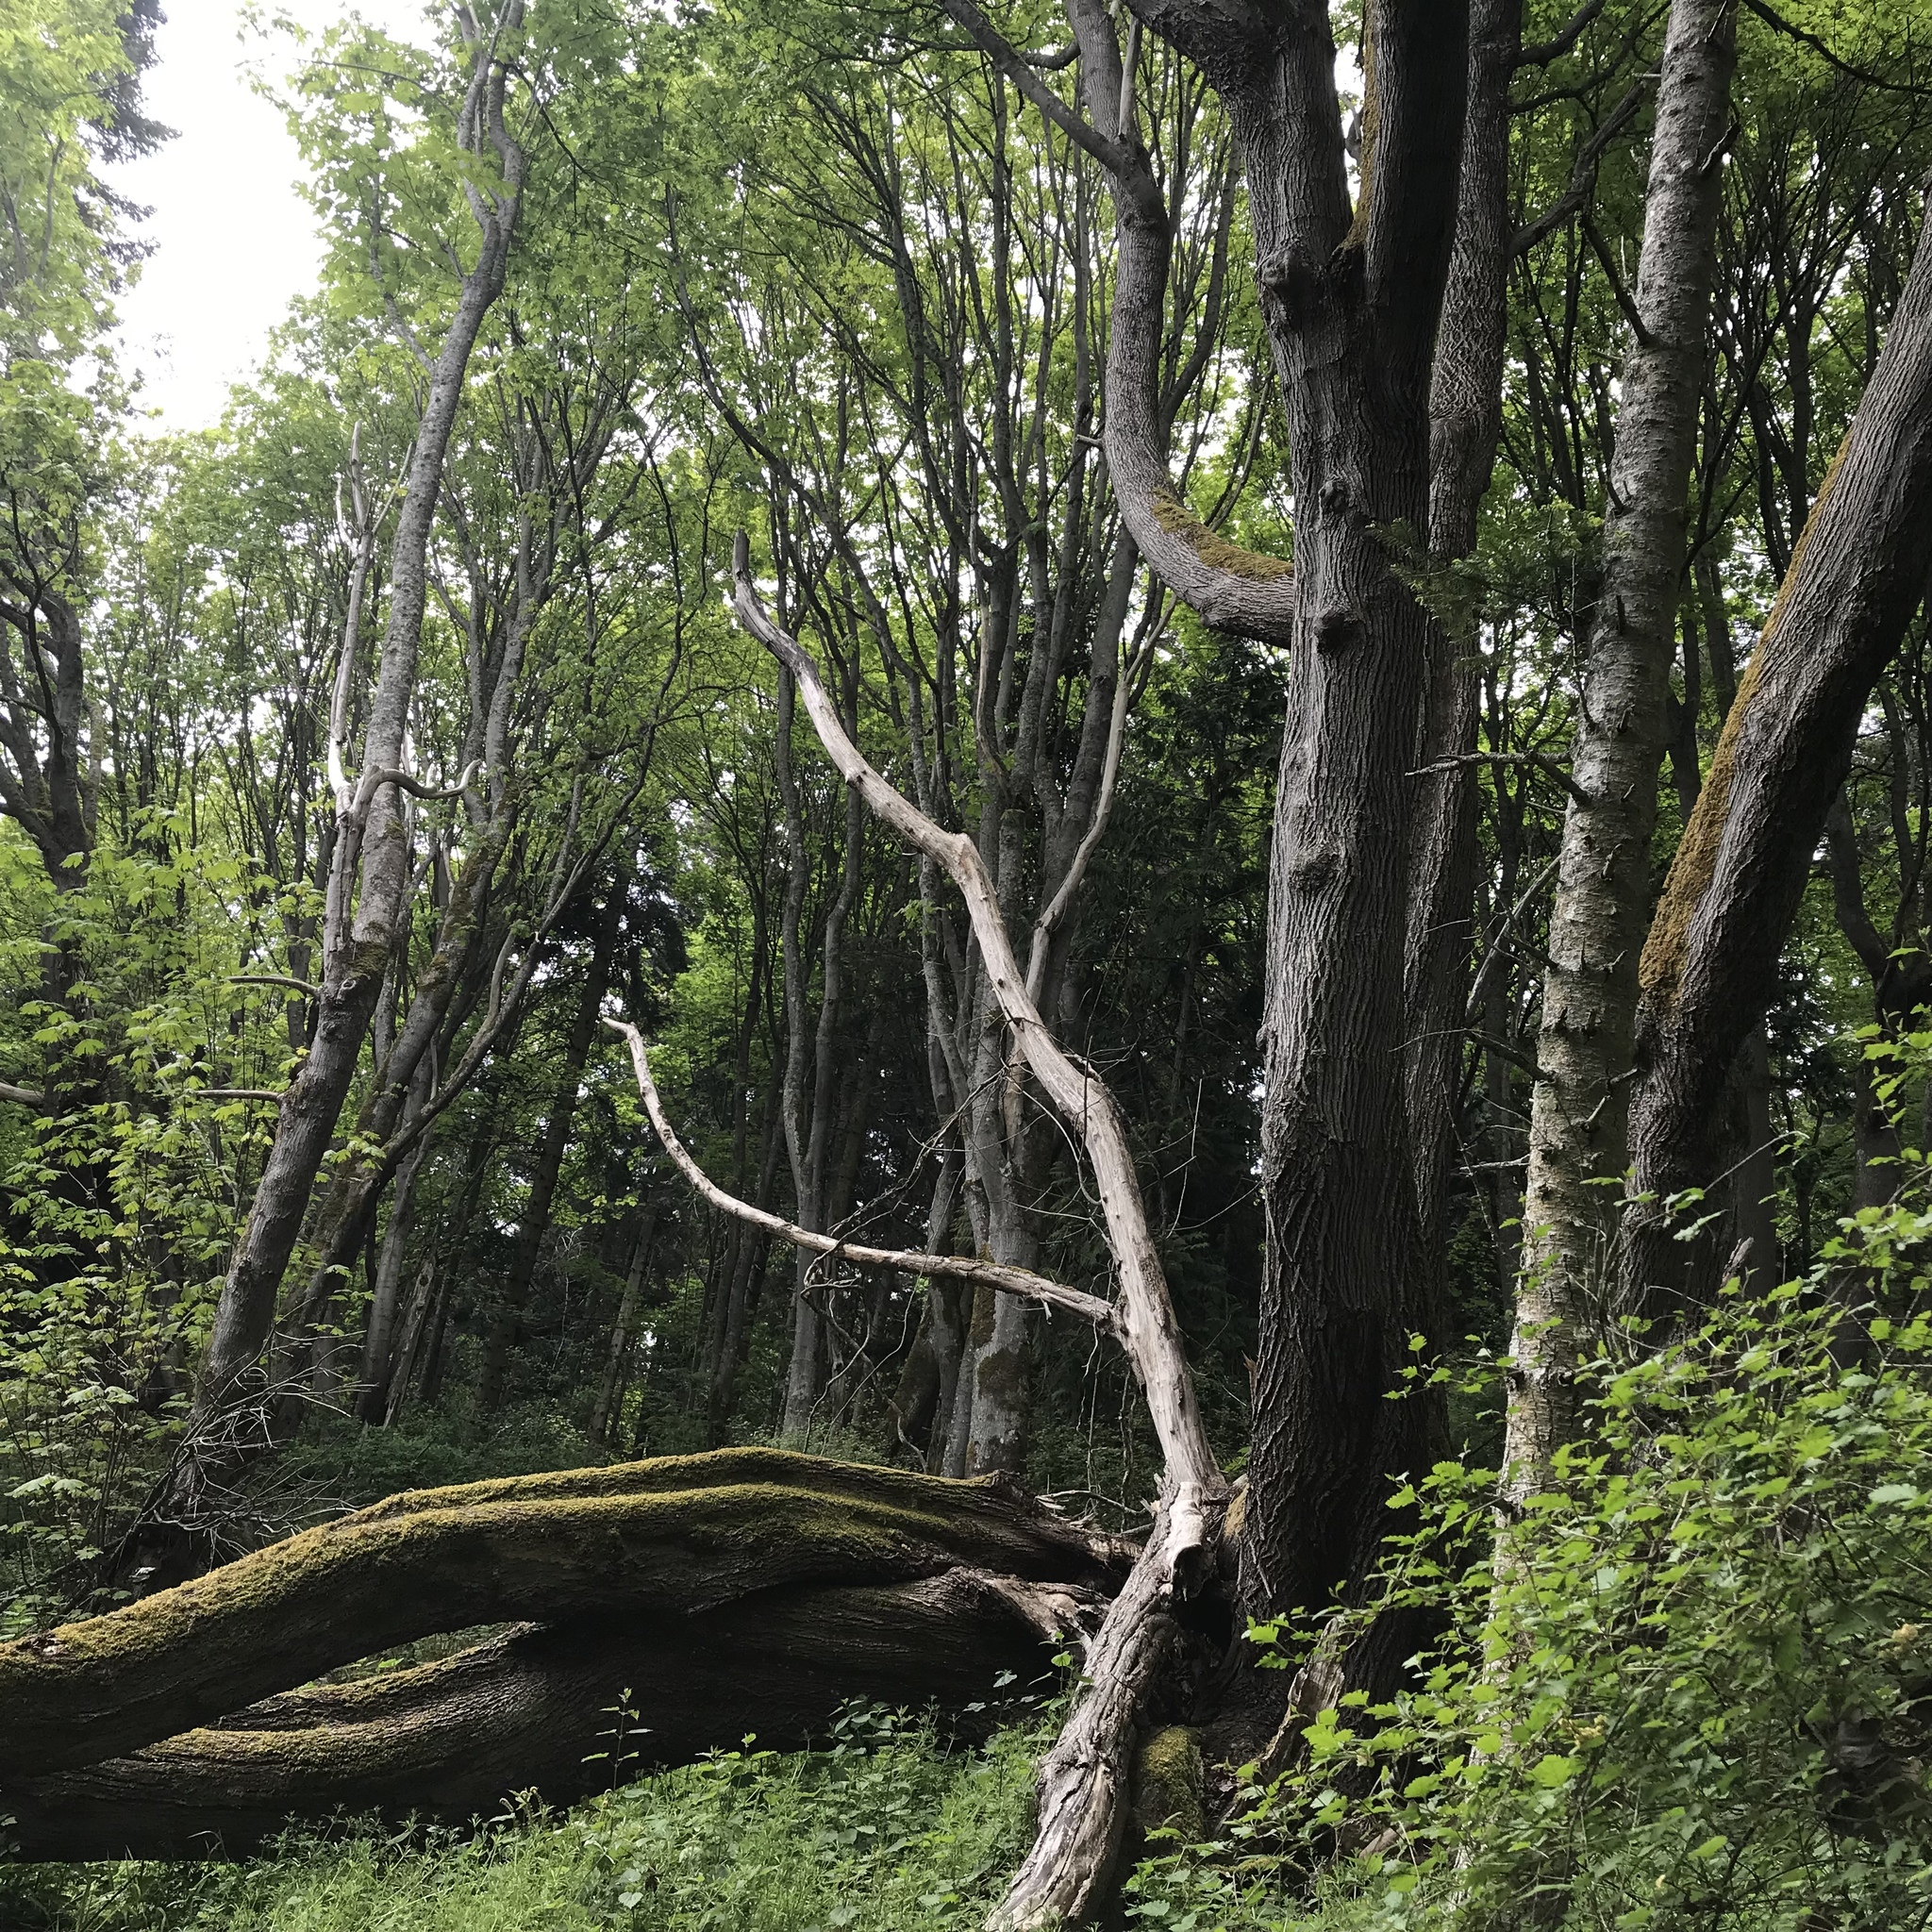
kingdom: Plantae
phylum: Tracheophyta
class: Magnoliopsida
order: Sapindales
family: Sapindaceae
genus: Acer
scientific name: Acer macrophyllum
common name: Oregon maple
